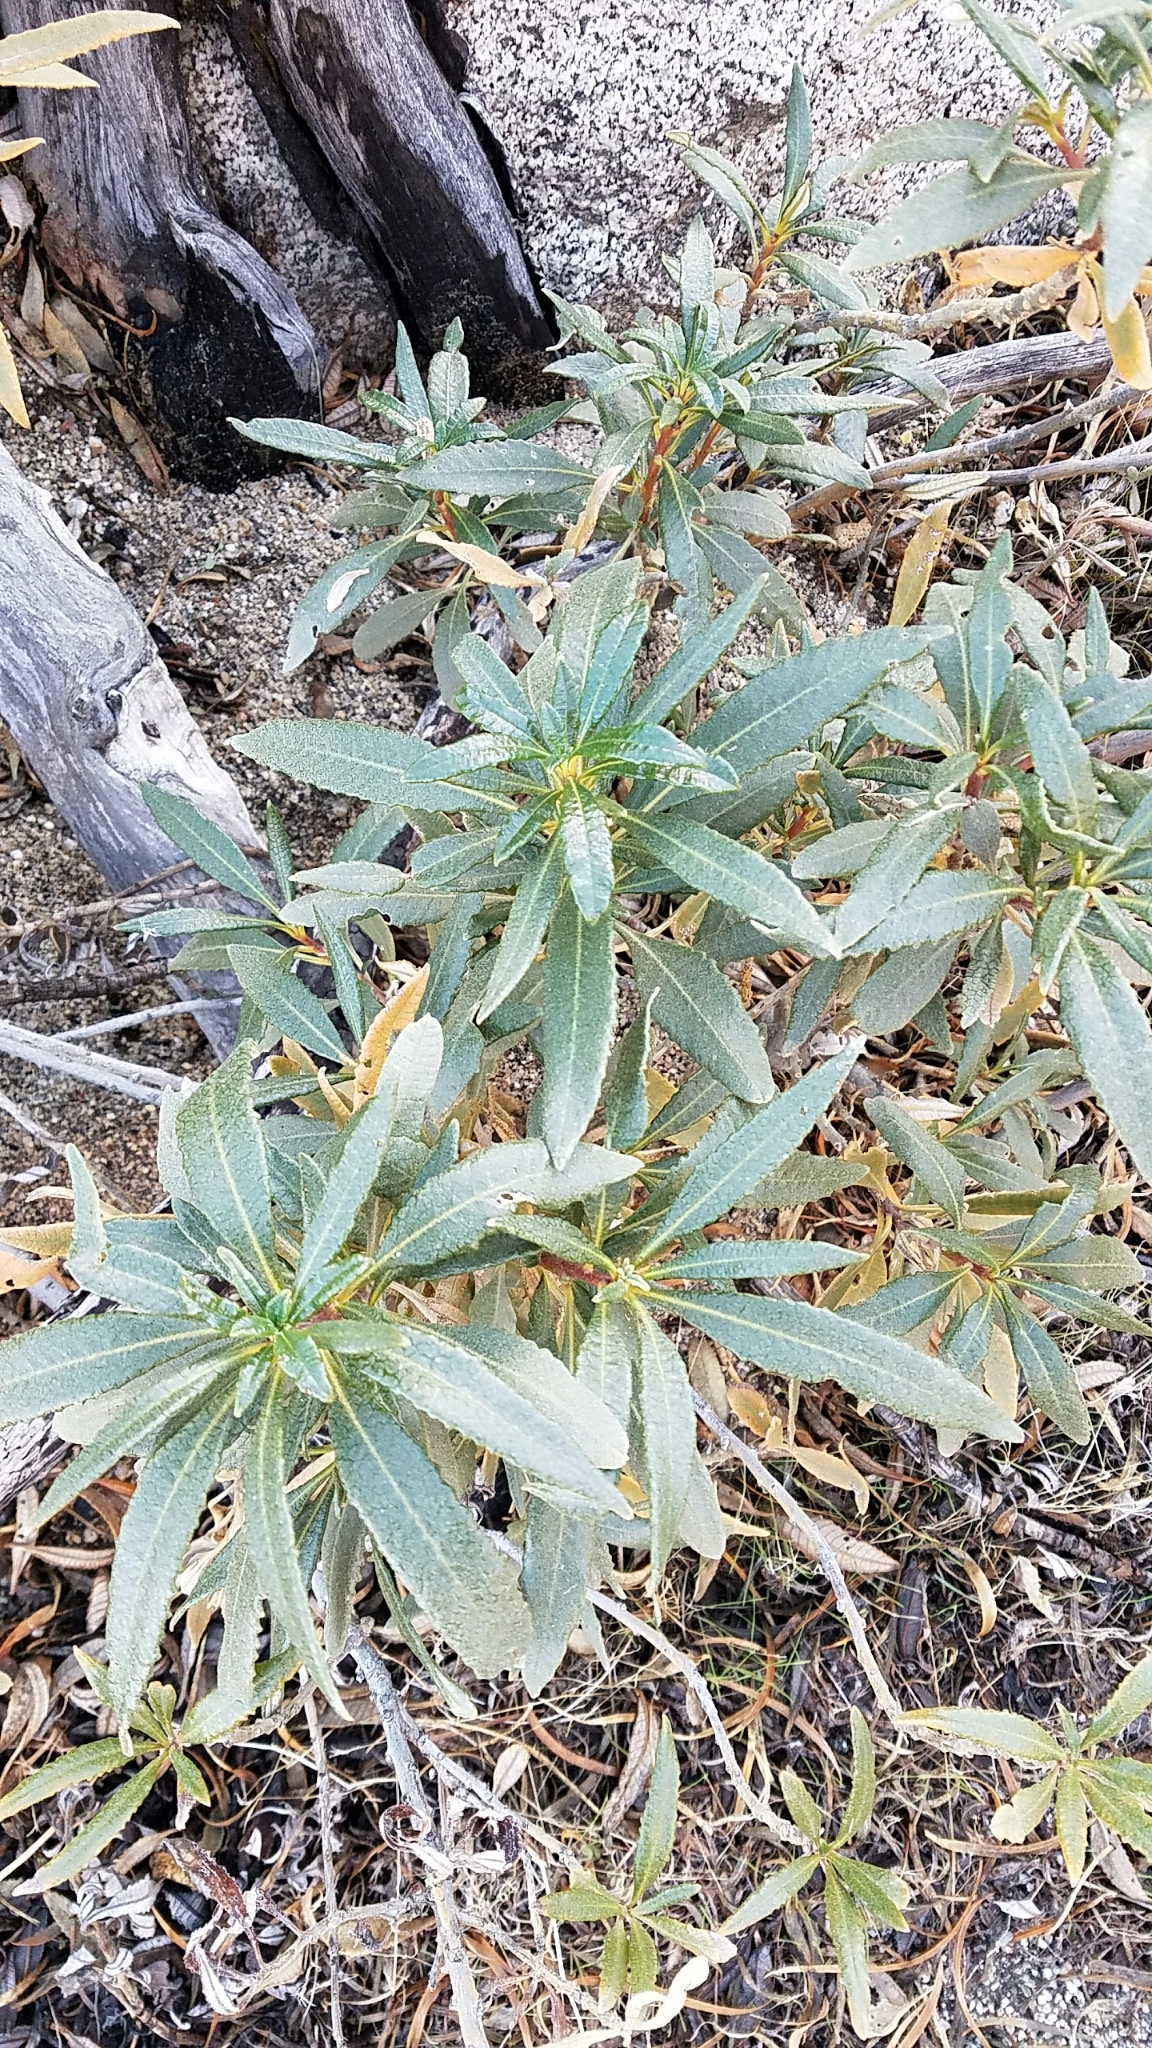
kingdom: Plantae
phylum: Tracheophyta
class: Magnoliopsida
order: Boraginales
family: Namaceae
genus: Eriodictyon
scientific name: Eriodictyon trichocalyx
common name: Hairy yerba-santa
